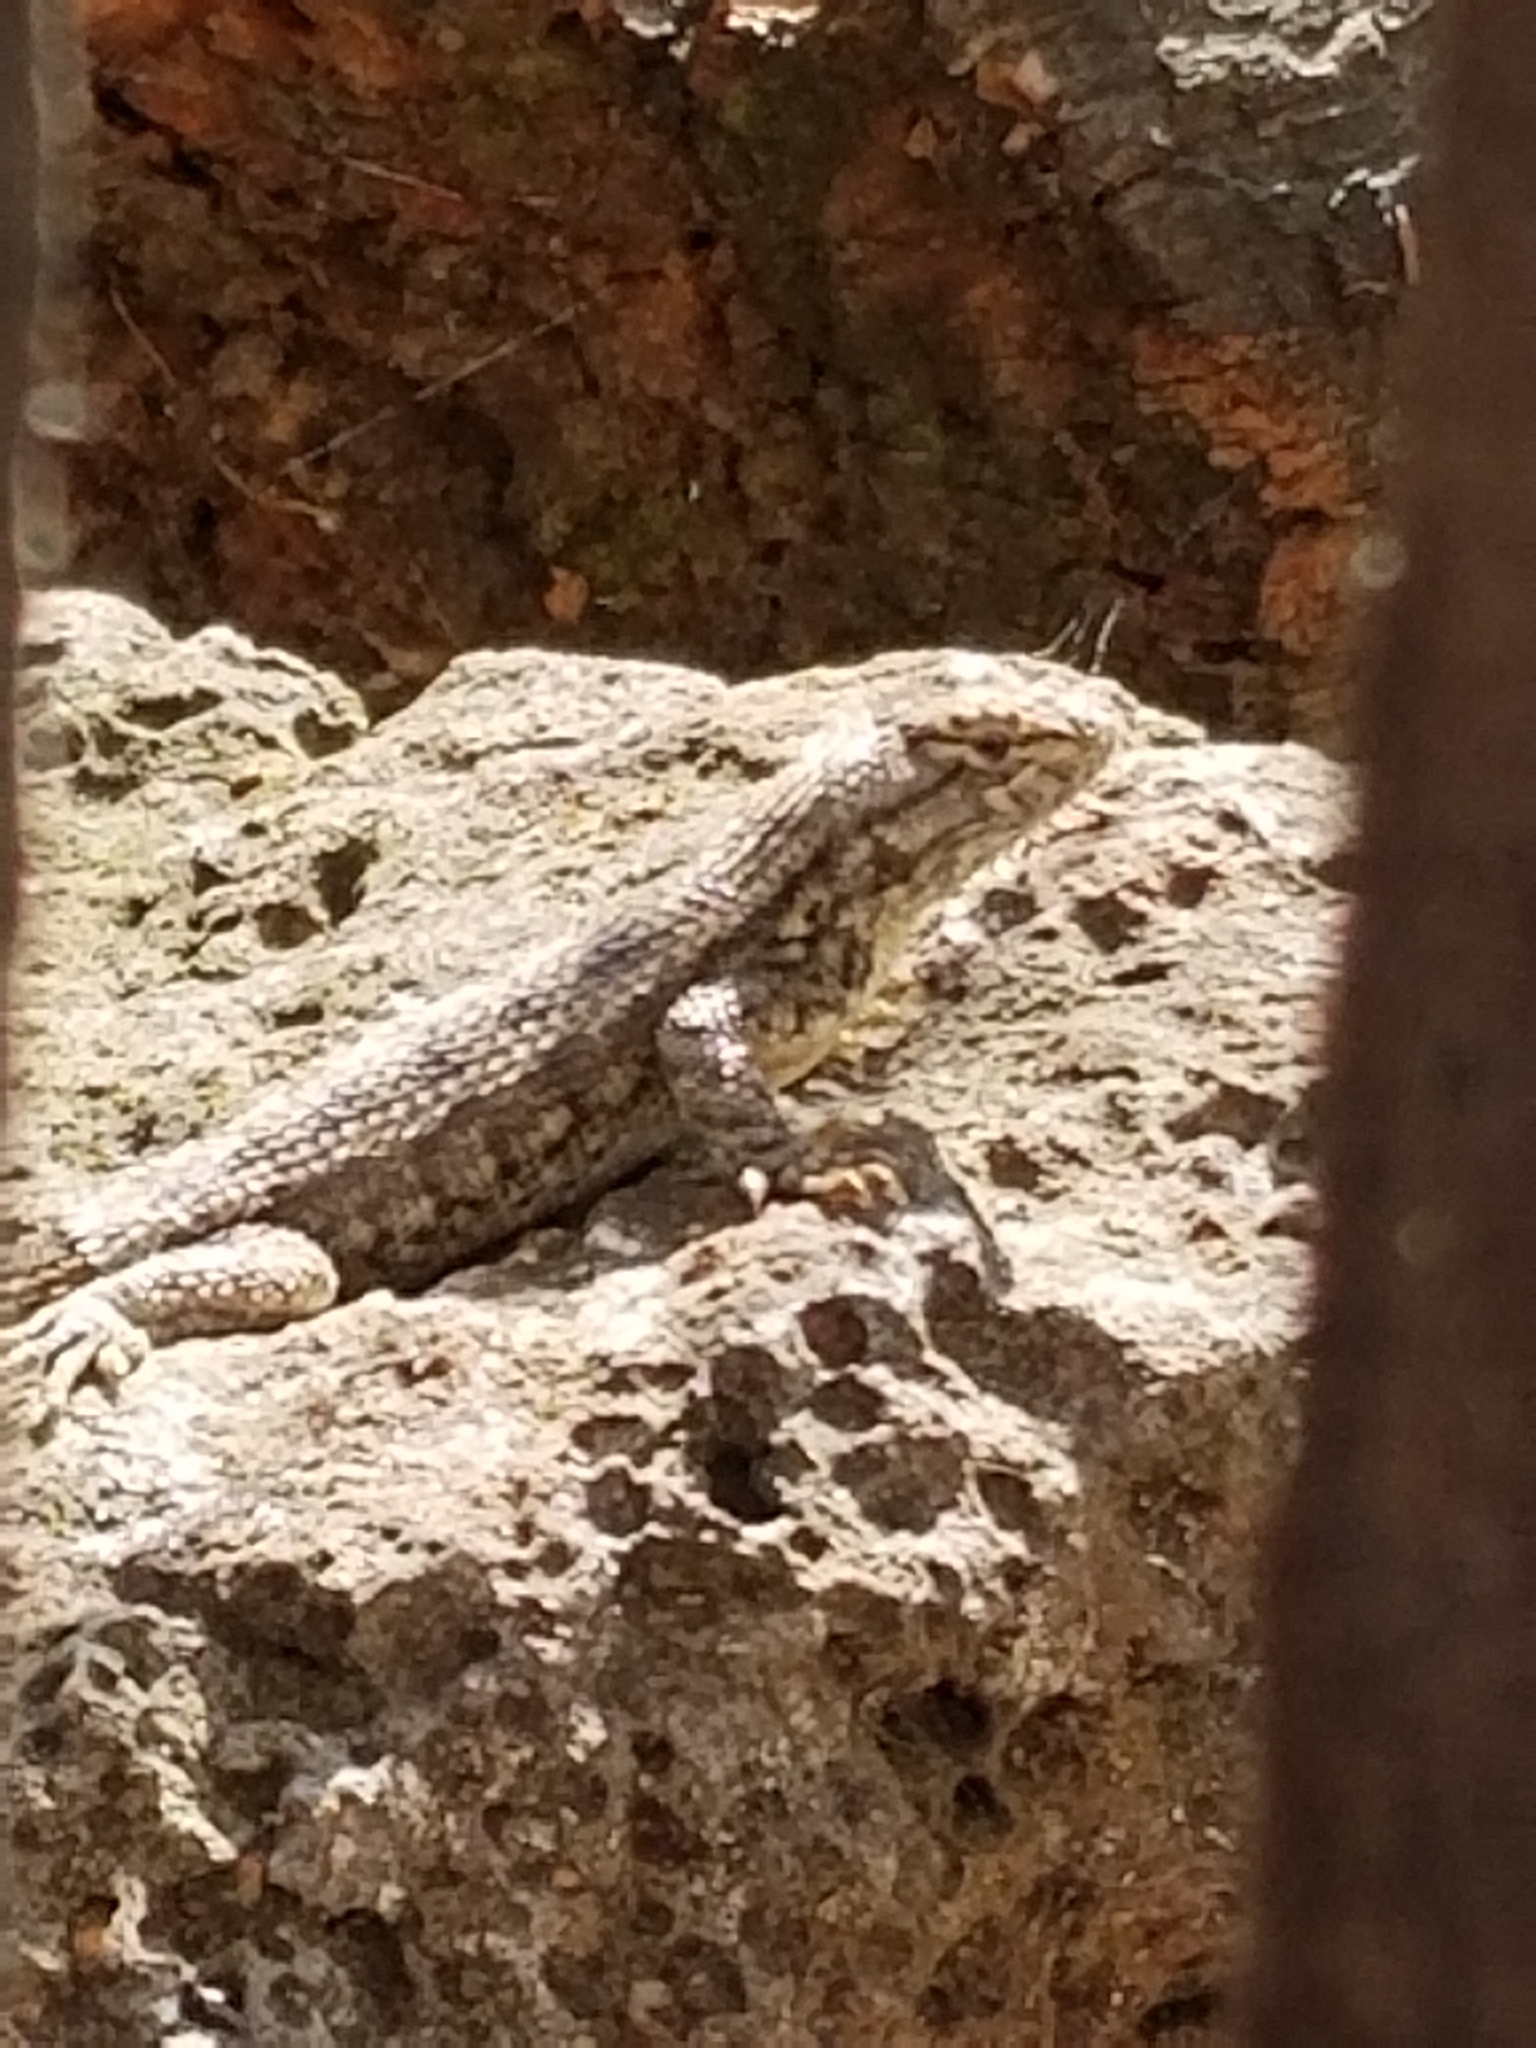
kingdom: Animalia
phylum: Chordata
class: Squamata
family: Phrynosomatidae
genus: Sceloporus
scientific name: Sceloporus occidentalis
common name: Western fence lizard
